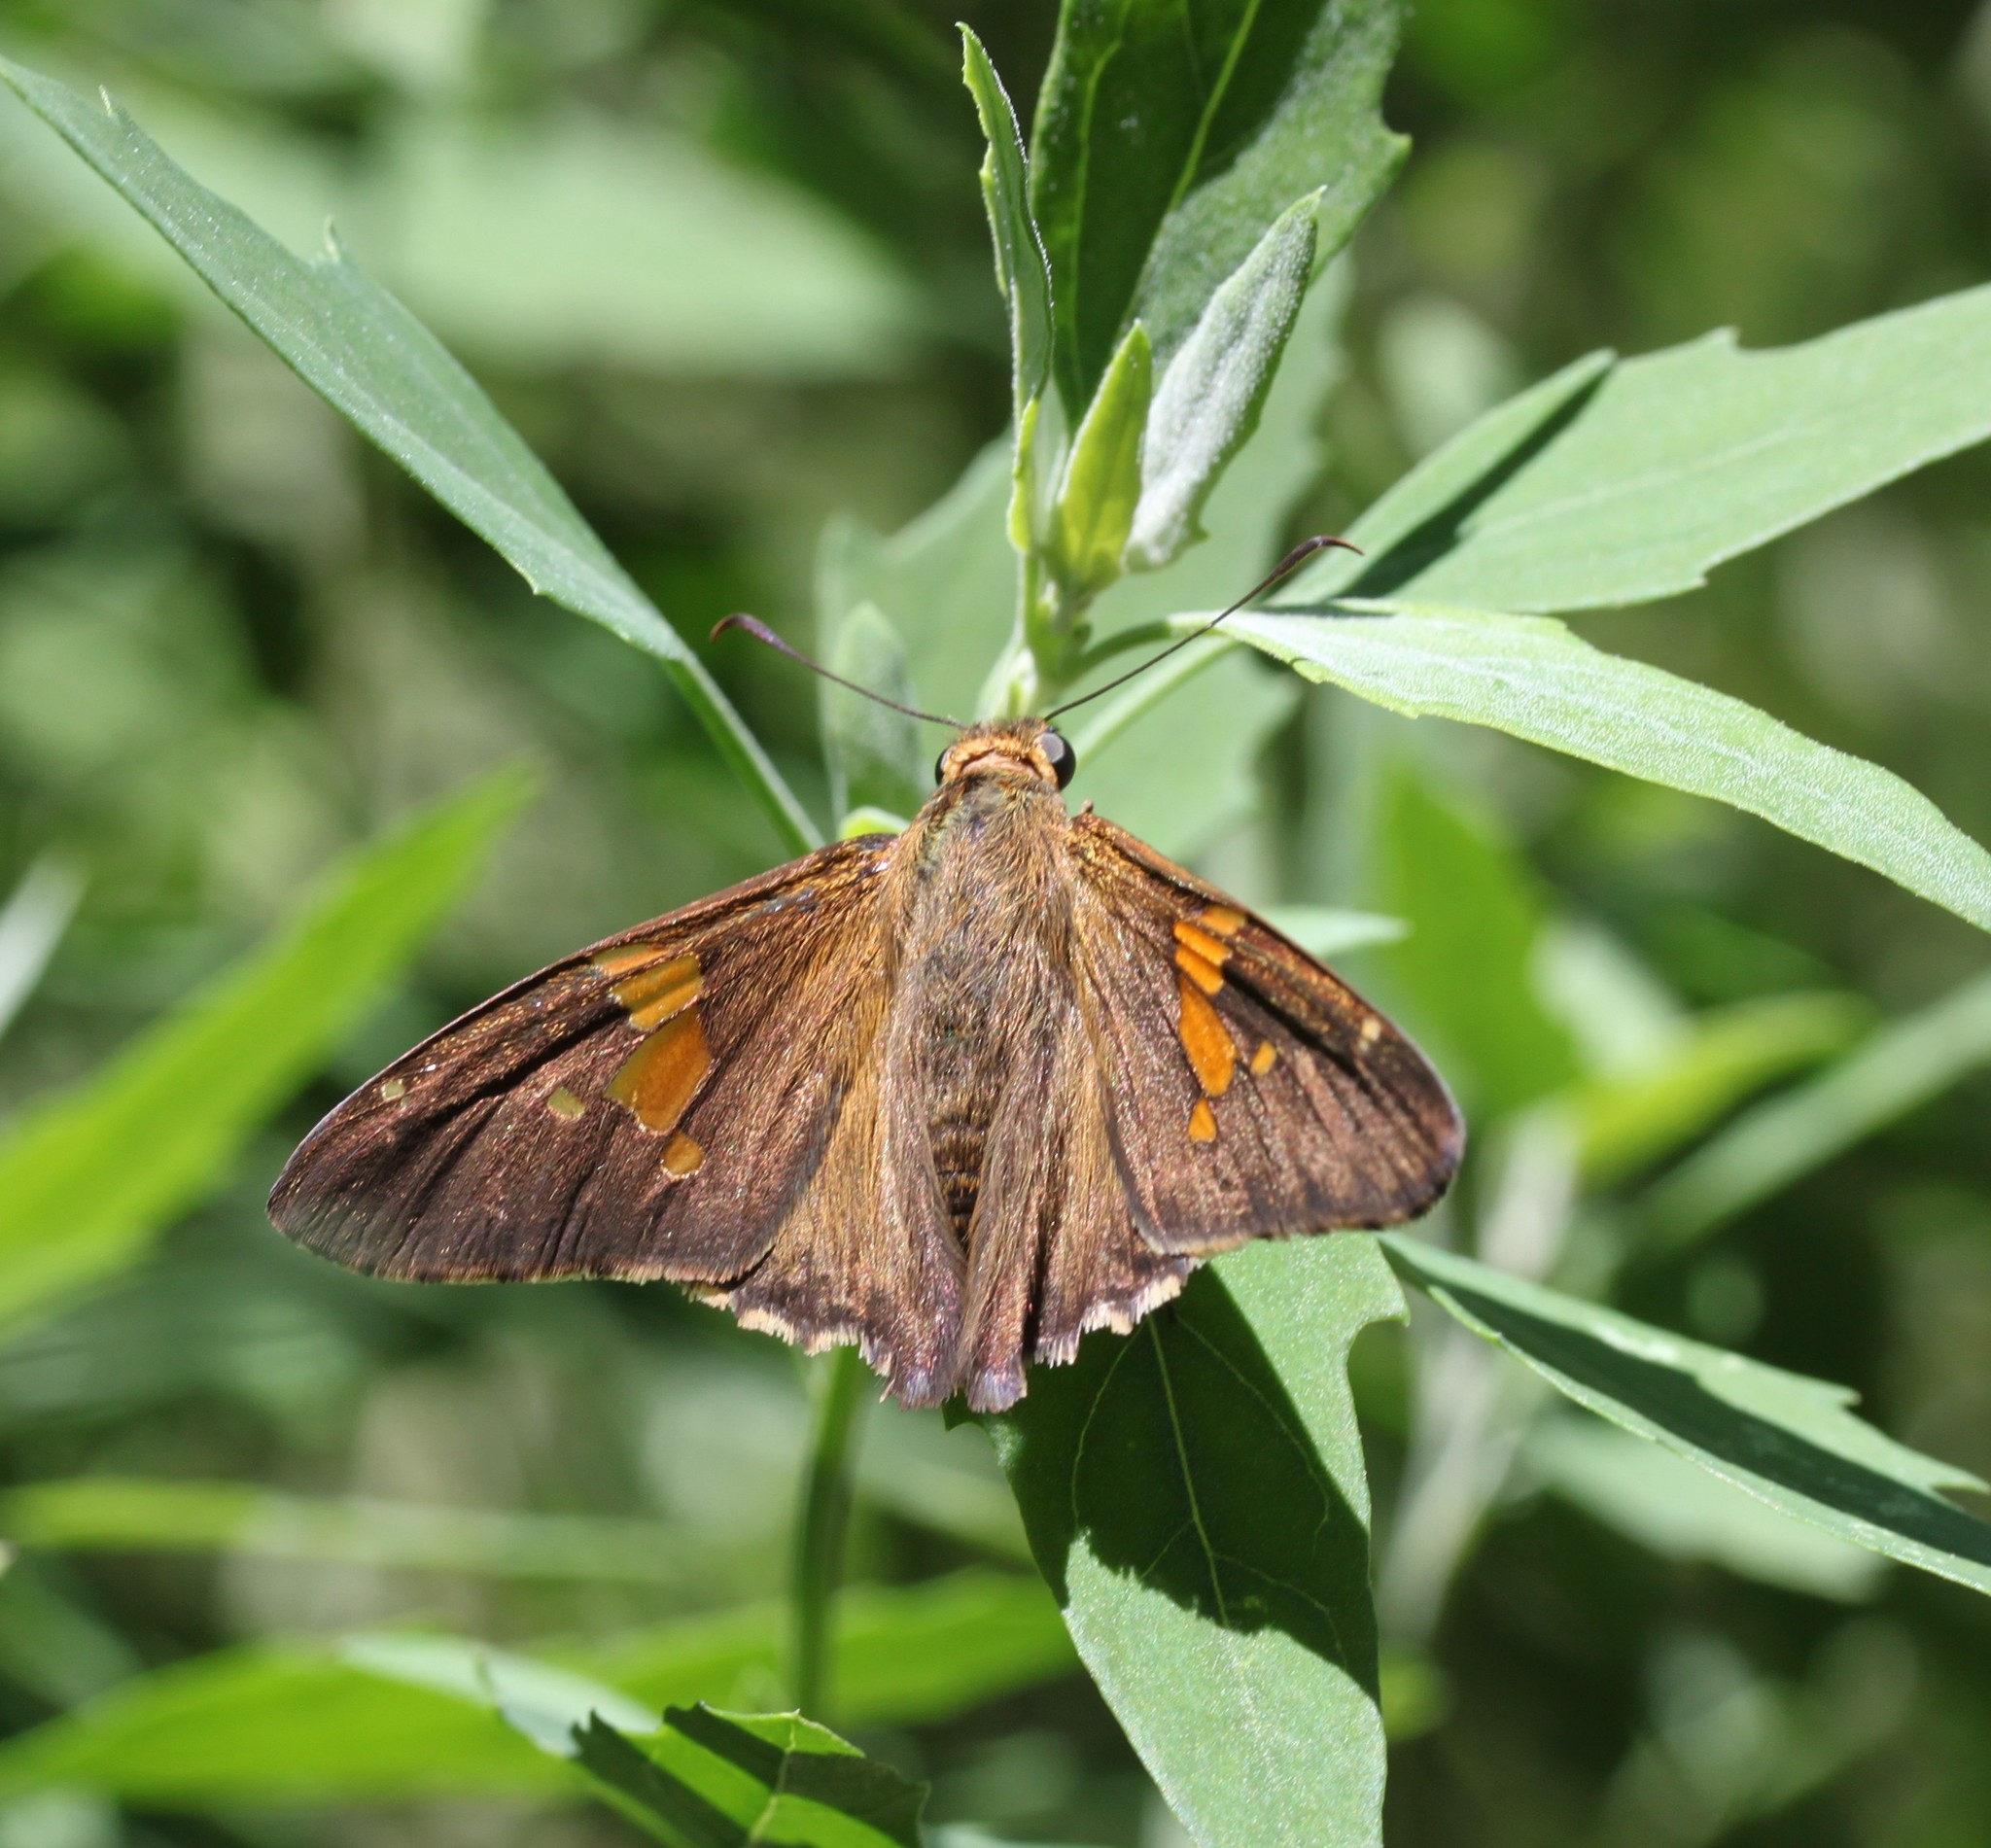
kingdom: Animalia
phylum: Arthropoda
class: Insecta
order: Lepidoptera
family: Hesperiidae
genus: Epargyreus
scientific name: Epargyreus clarus
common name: Silver-spotted skipper
